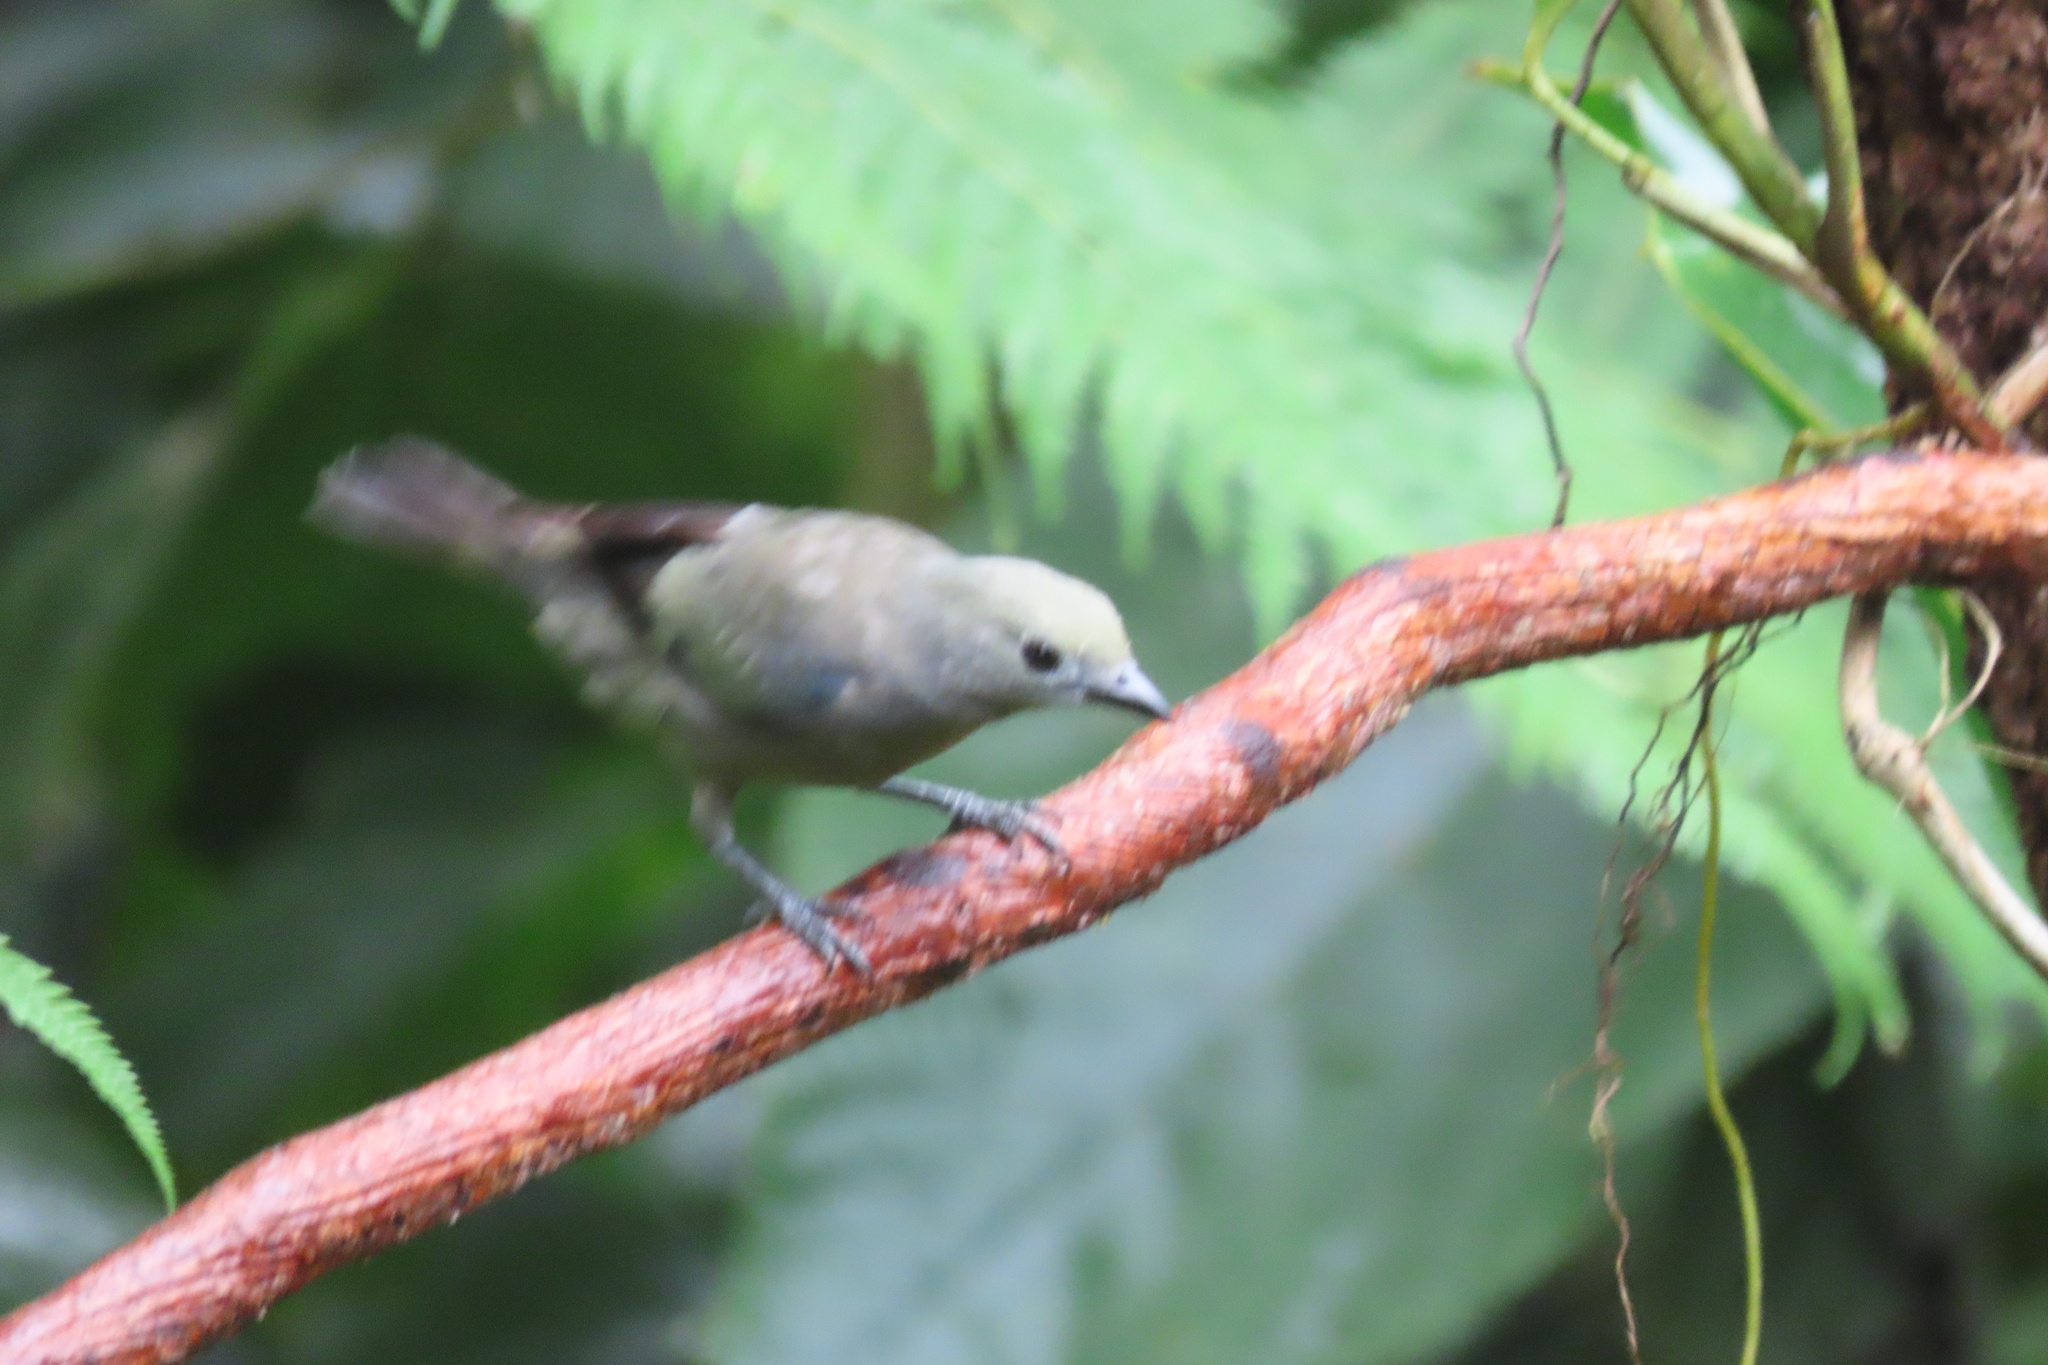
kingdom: Animalia
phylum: Chordata
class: Aves
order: Passeriformes
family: Thraupidae
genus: Thraupis
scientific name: Thraupis palmarum
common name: Palm tanager
